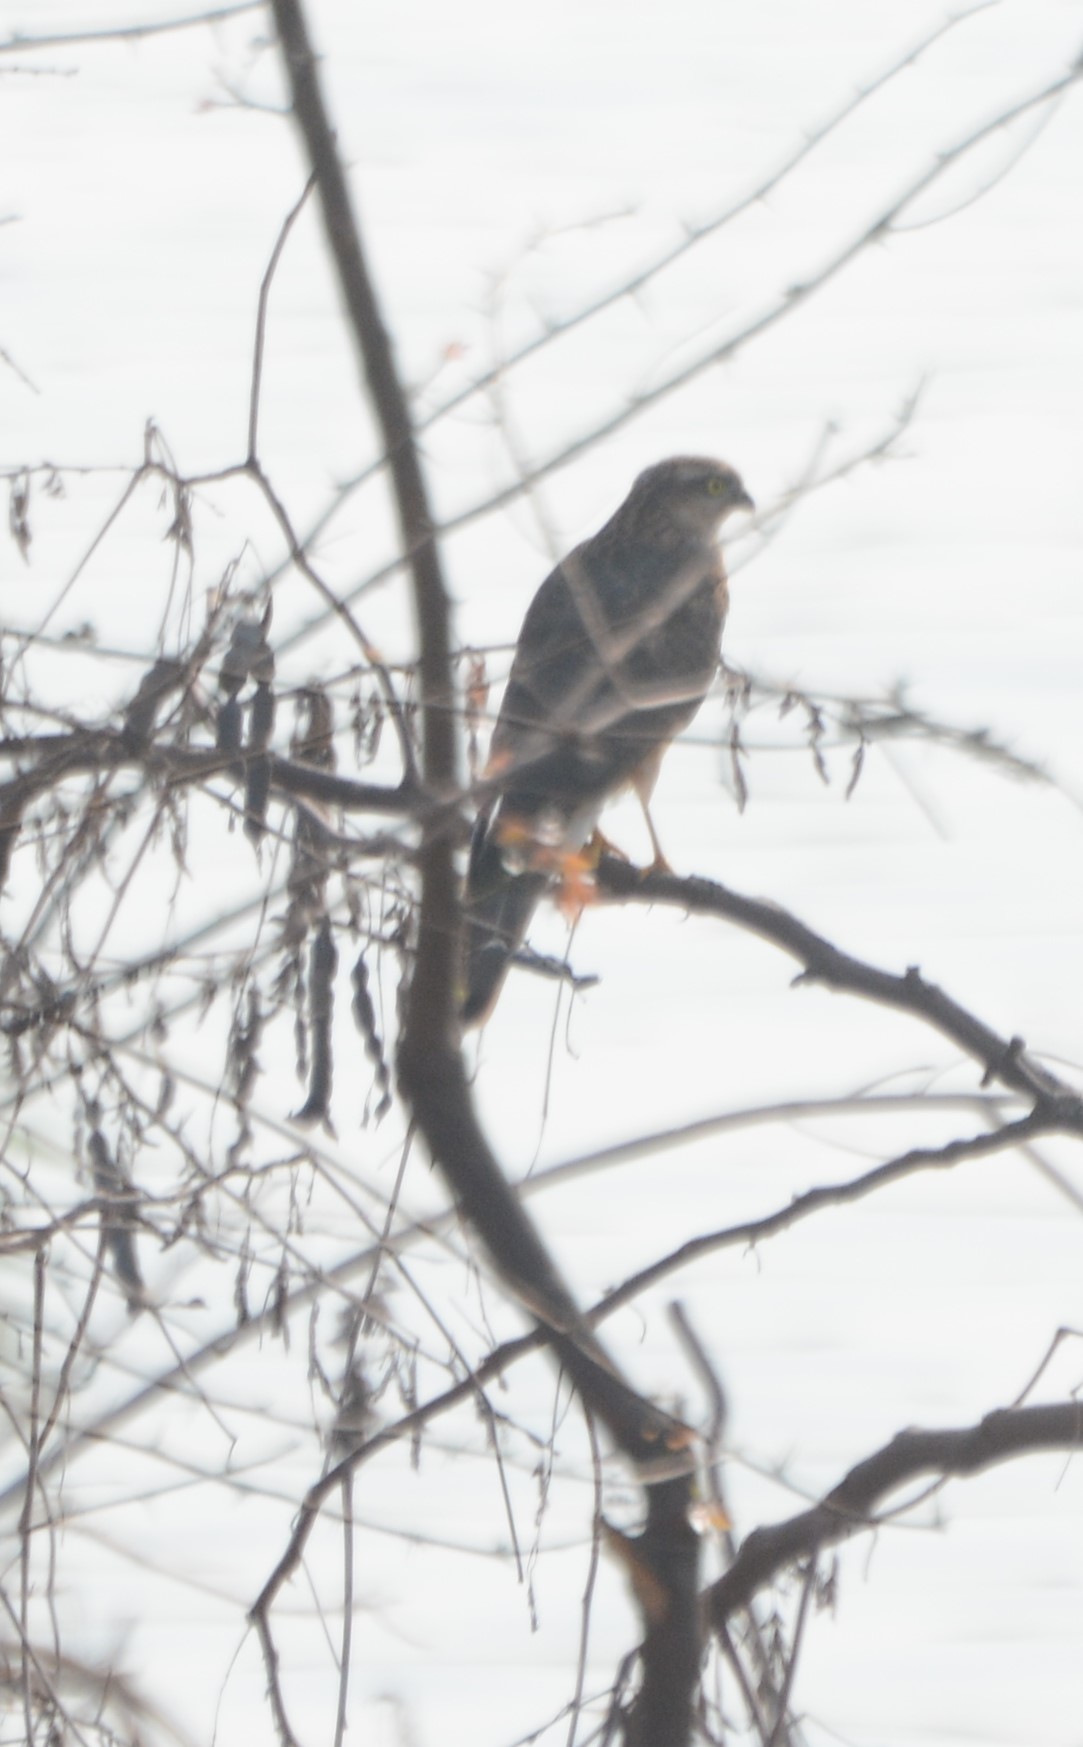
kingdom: Animalia
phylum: Chordata
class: Aves
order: Accipitriformes
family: Accipitridae
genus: Accipiter
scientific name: Accipiter nisus
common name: Eurasian sparrowhawk
